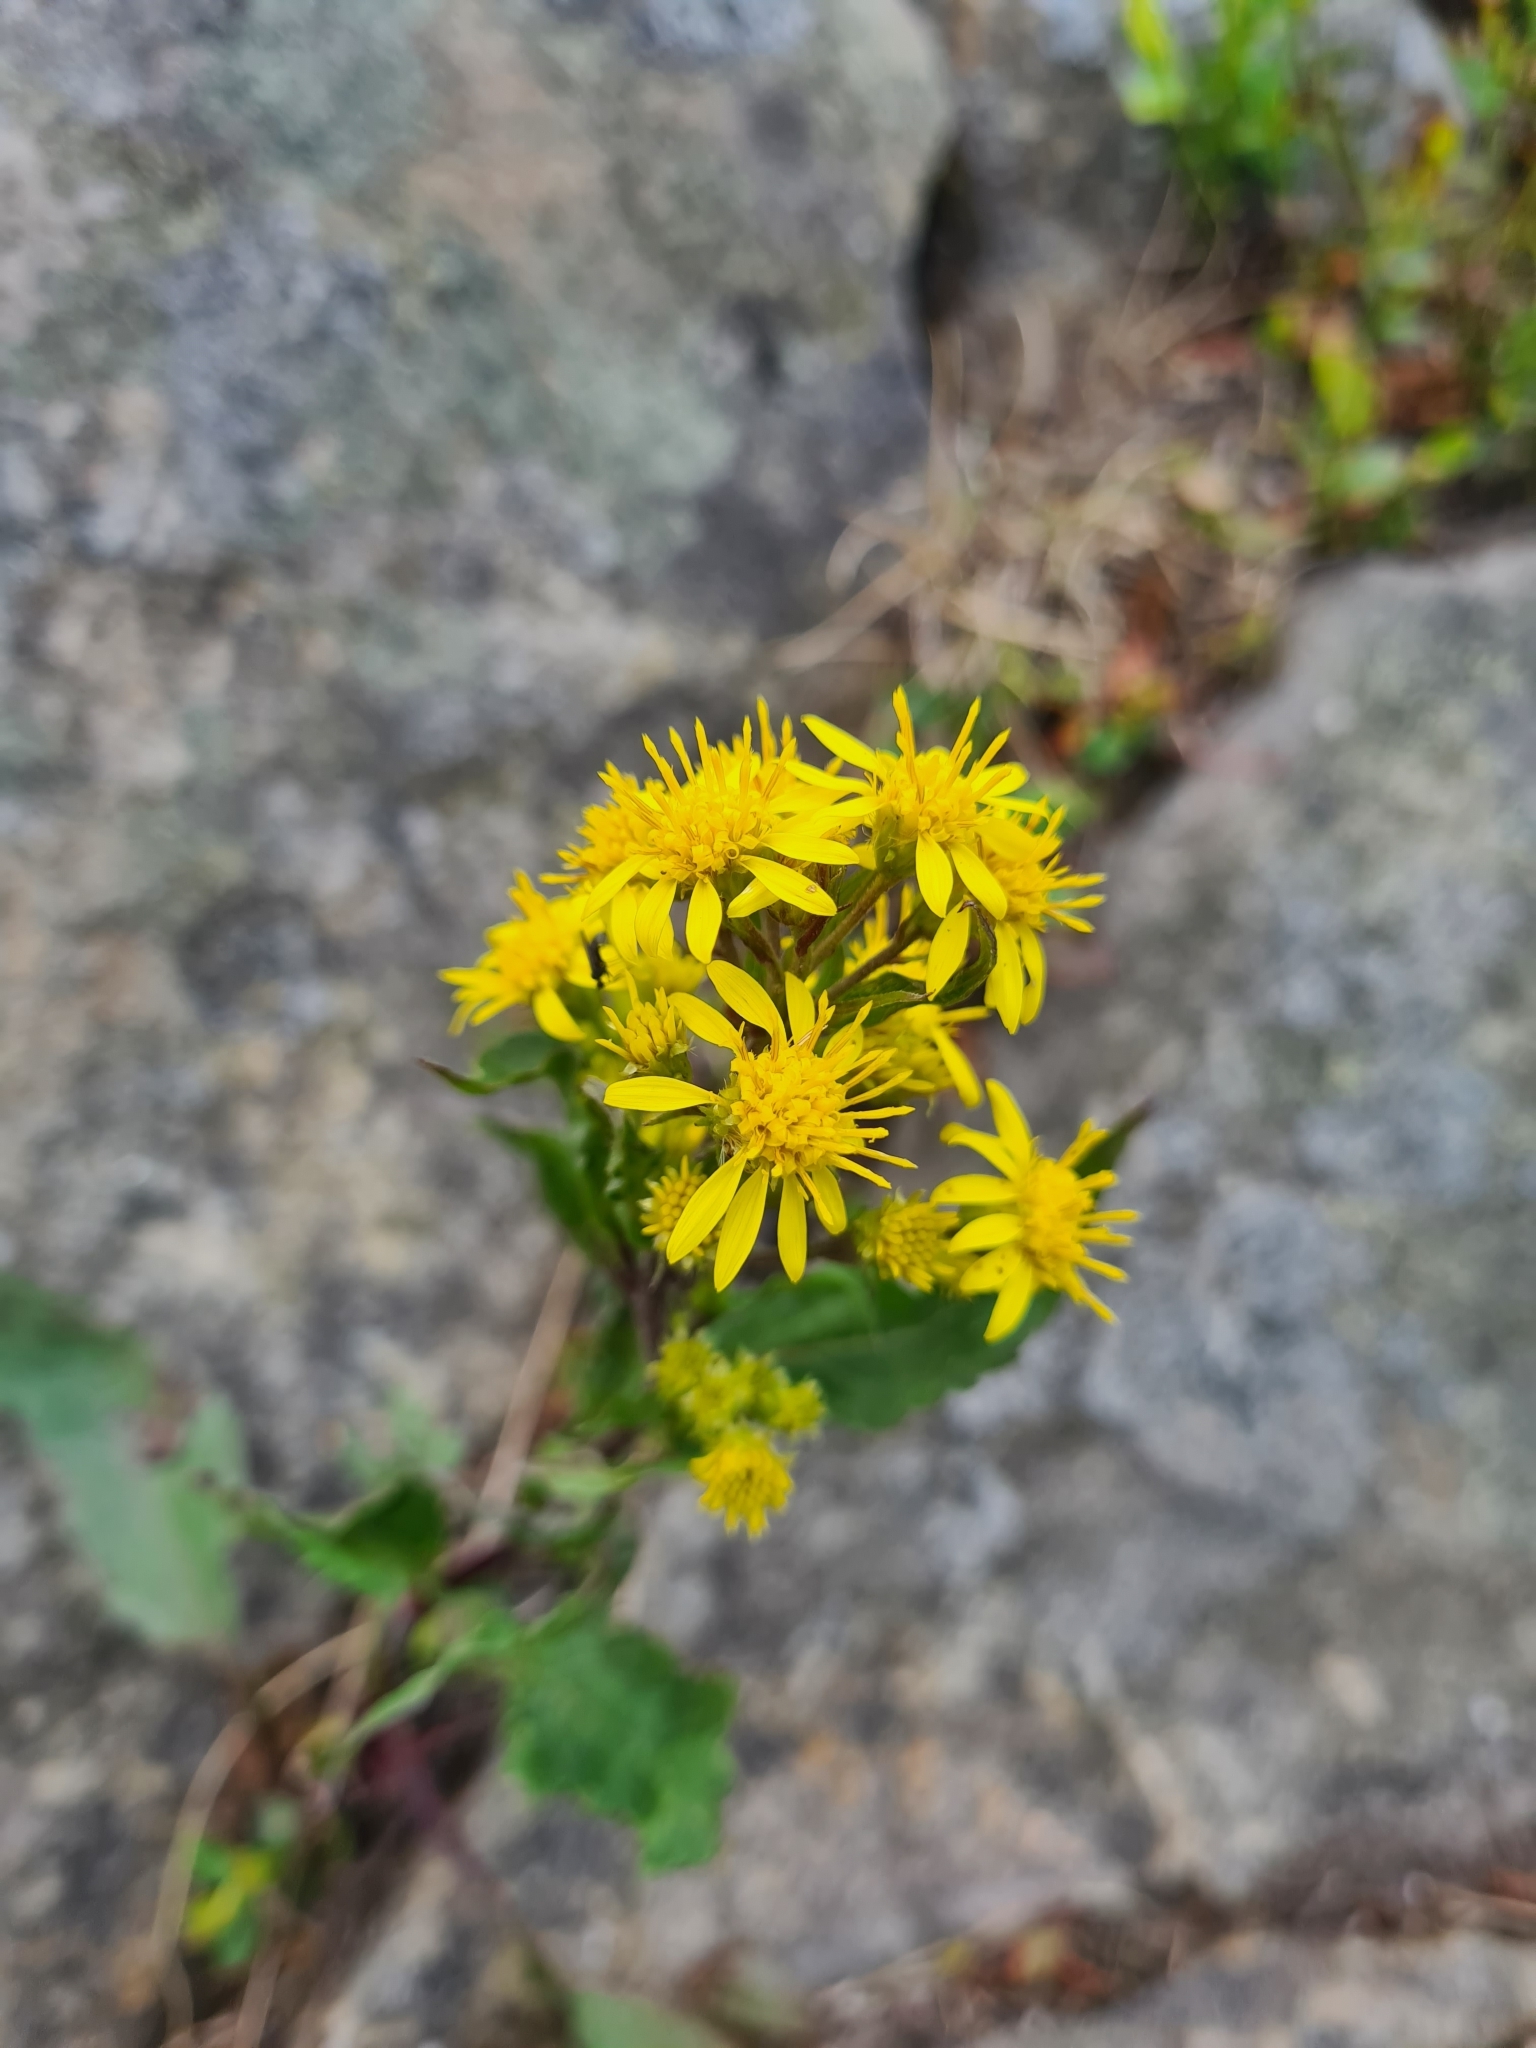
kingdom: Plantae
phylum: Tracheophyta
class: Magnoliopsida
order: Asterales
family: Asteraceae
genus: Solidago
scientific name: Solidago virgaurea
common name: Goldenrod
